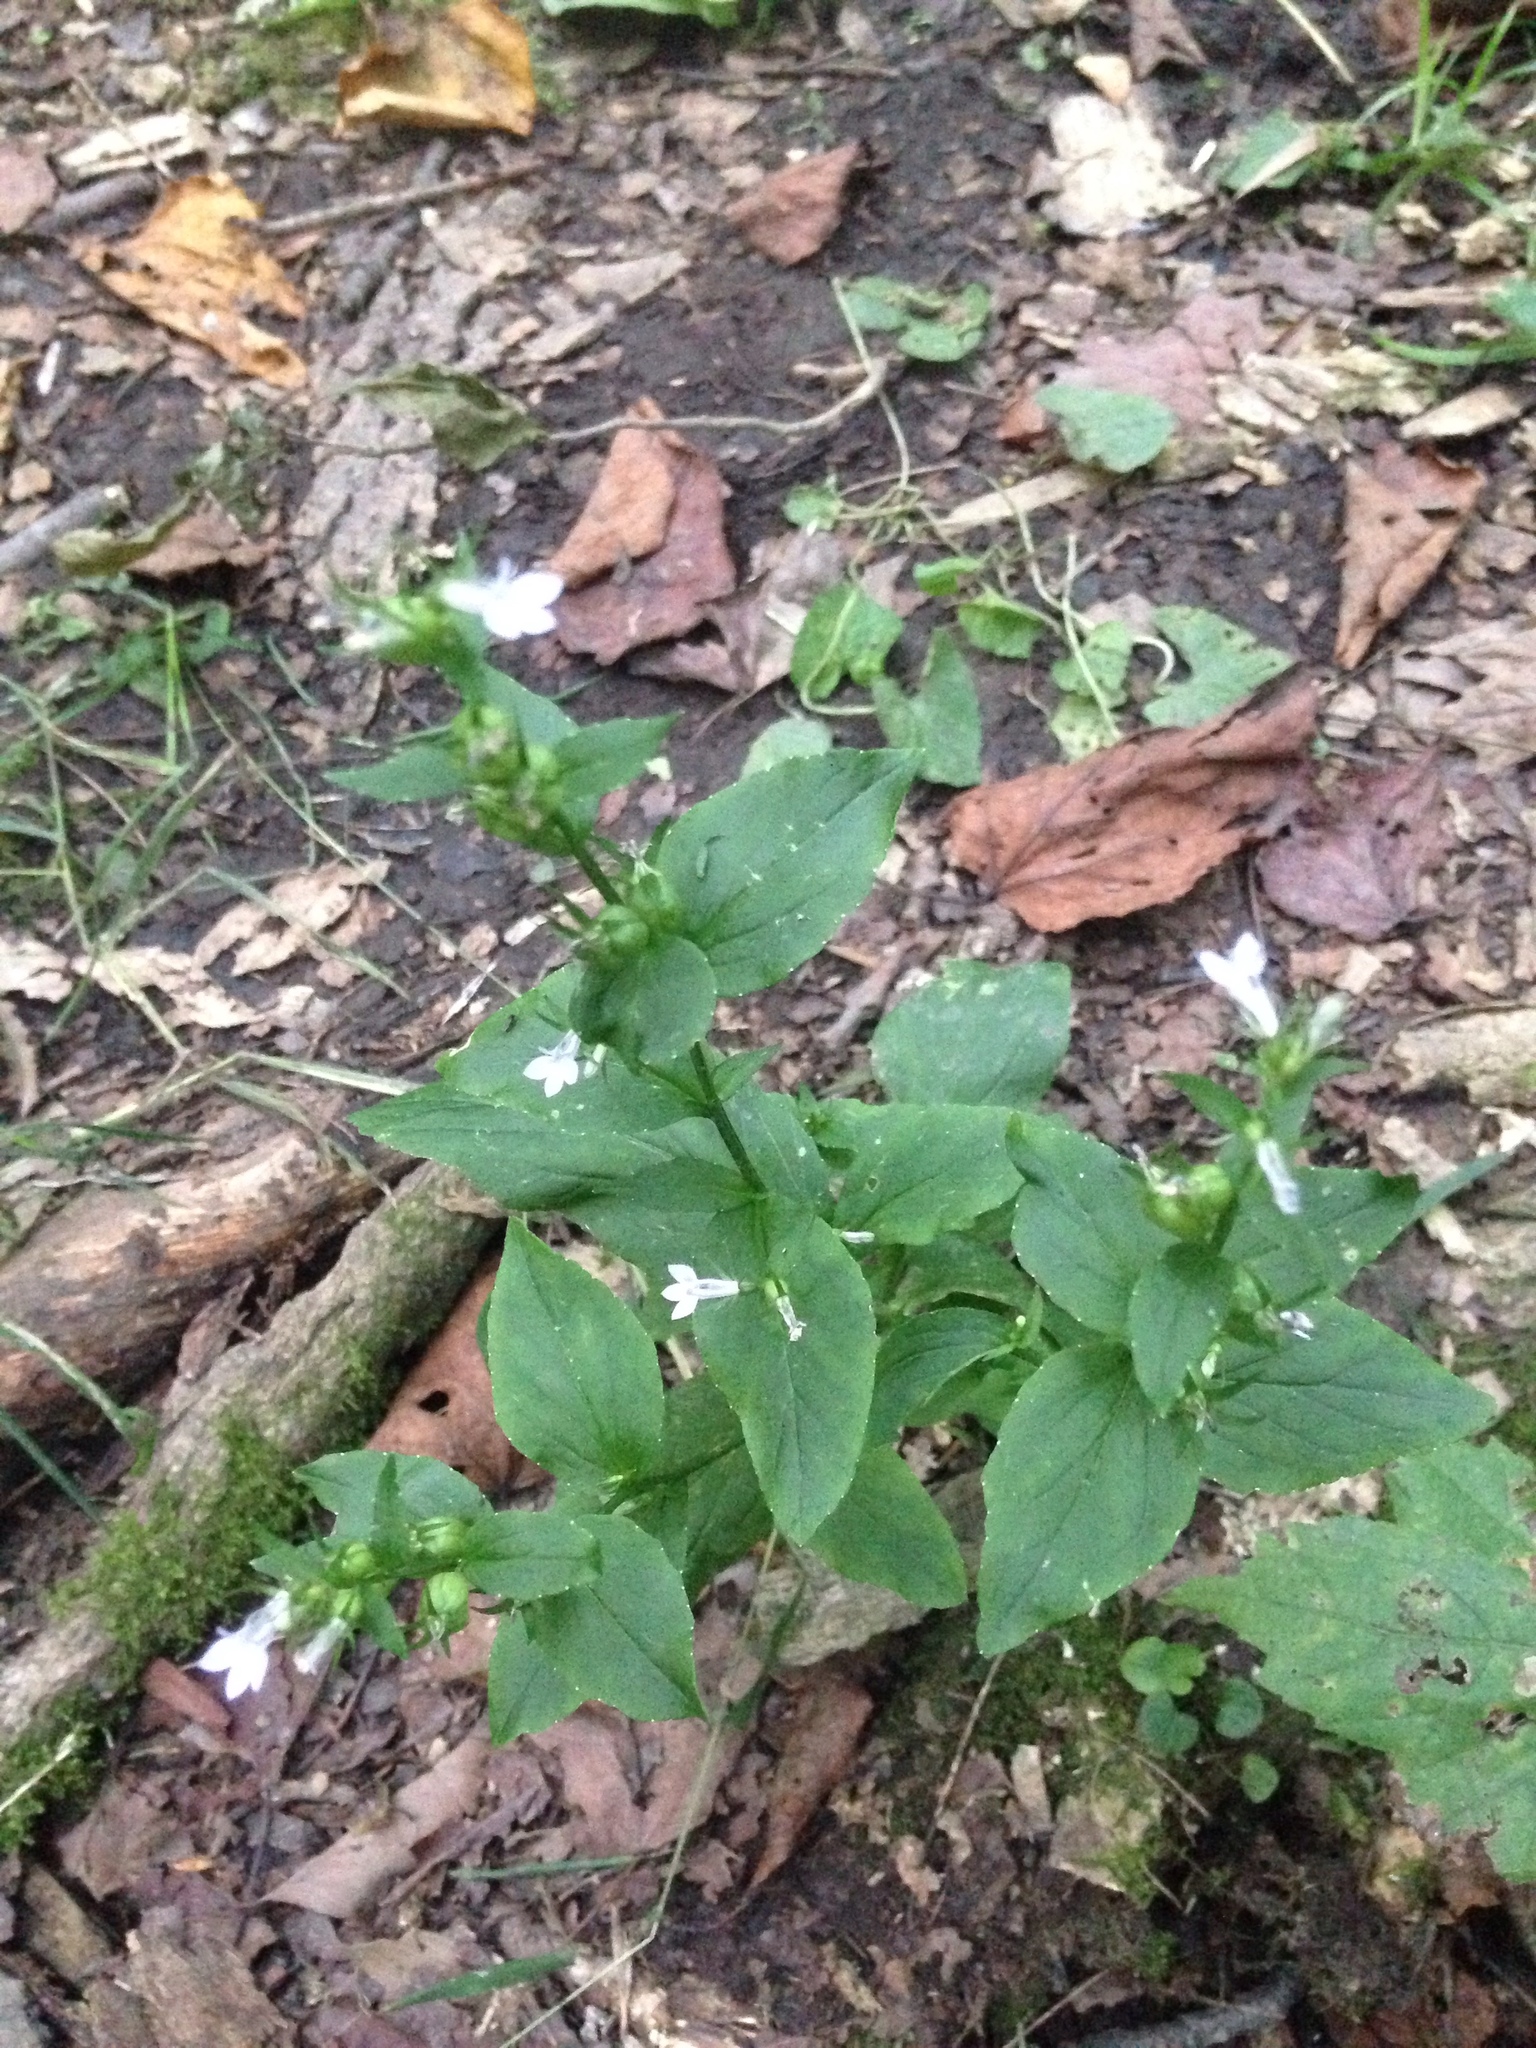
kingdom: Plantae
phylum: Tracheophyta
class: Magnoliopsida
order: Asterales
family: Campanulaceae
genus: Lobelia
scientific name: Lobelia inflata
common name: Indian tobacco
